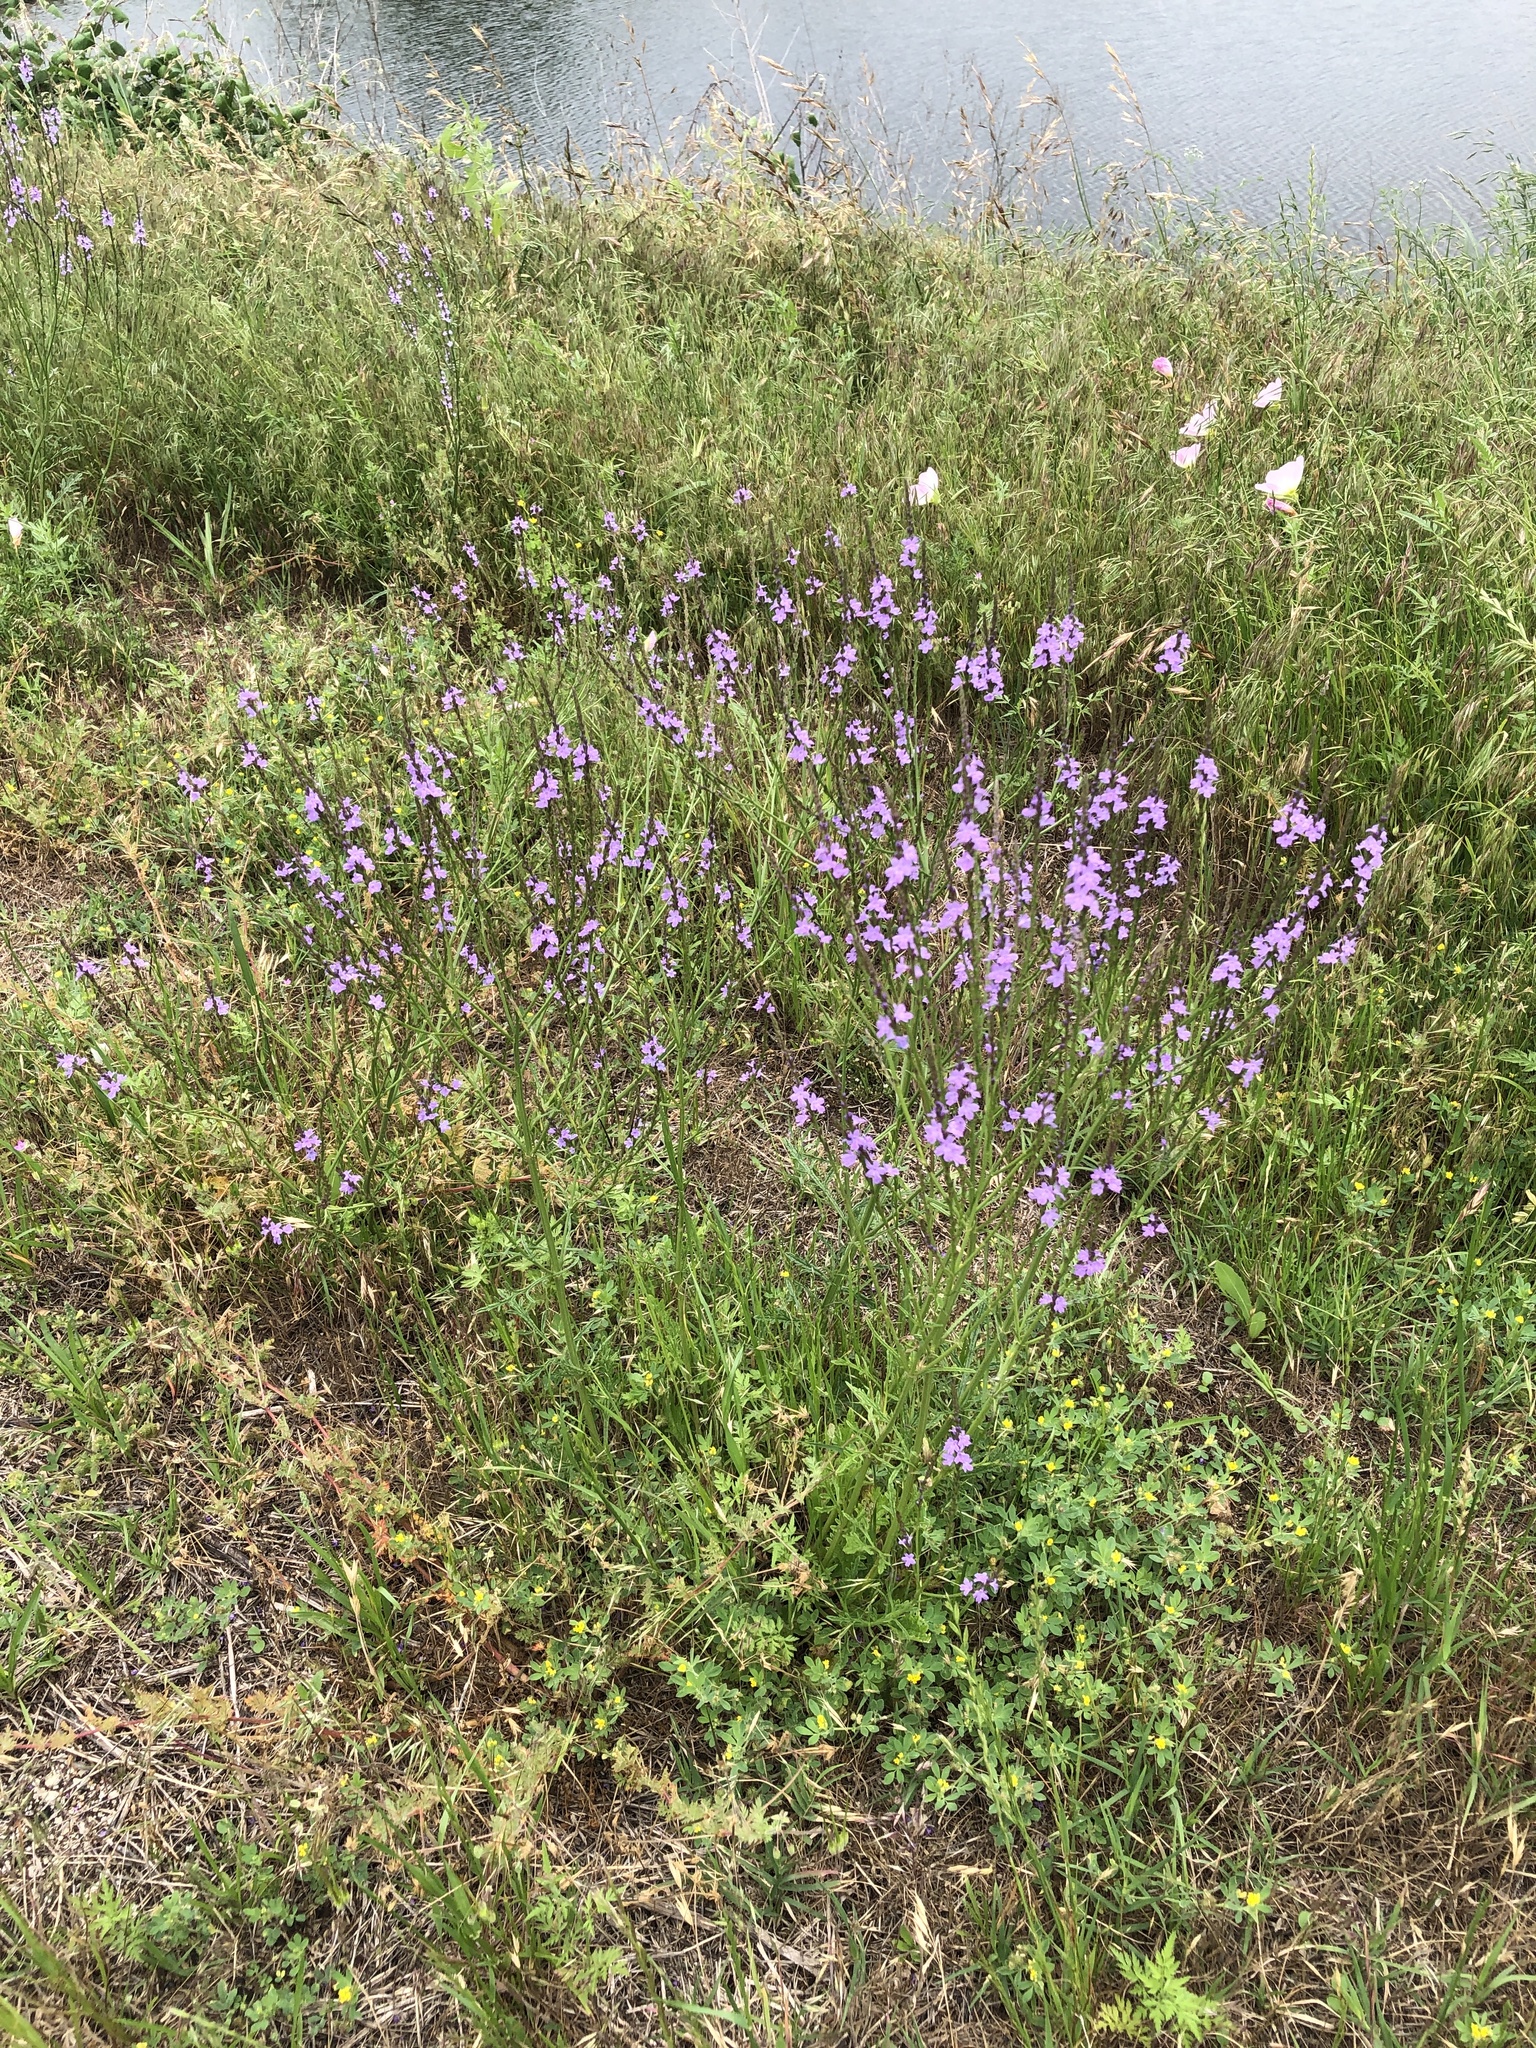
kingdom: Plantae
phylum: Tracheophyta
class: Magnoliopsida
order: Lamiales
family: Verbenaceae
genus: Verbena
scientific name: Verbena halei
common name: Texas vervain
